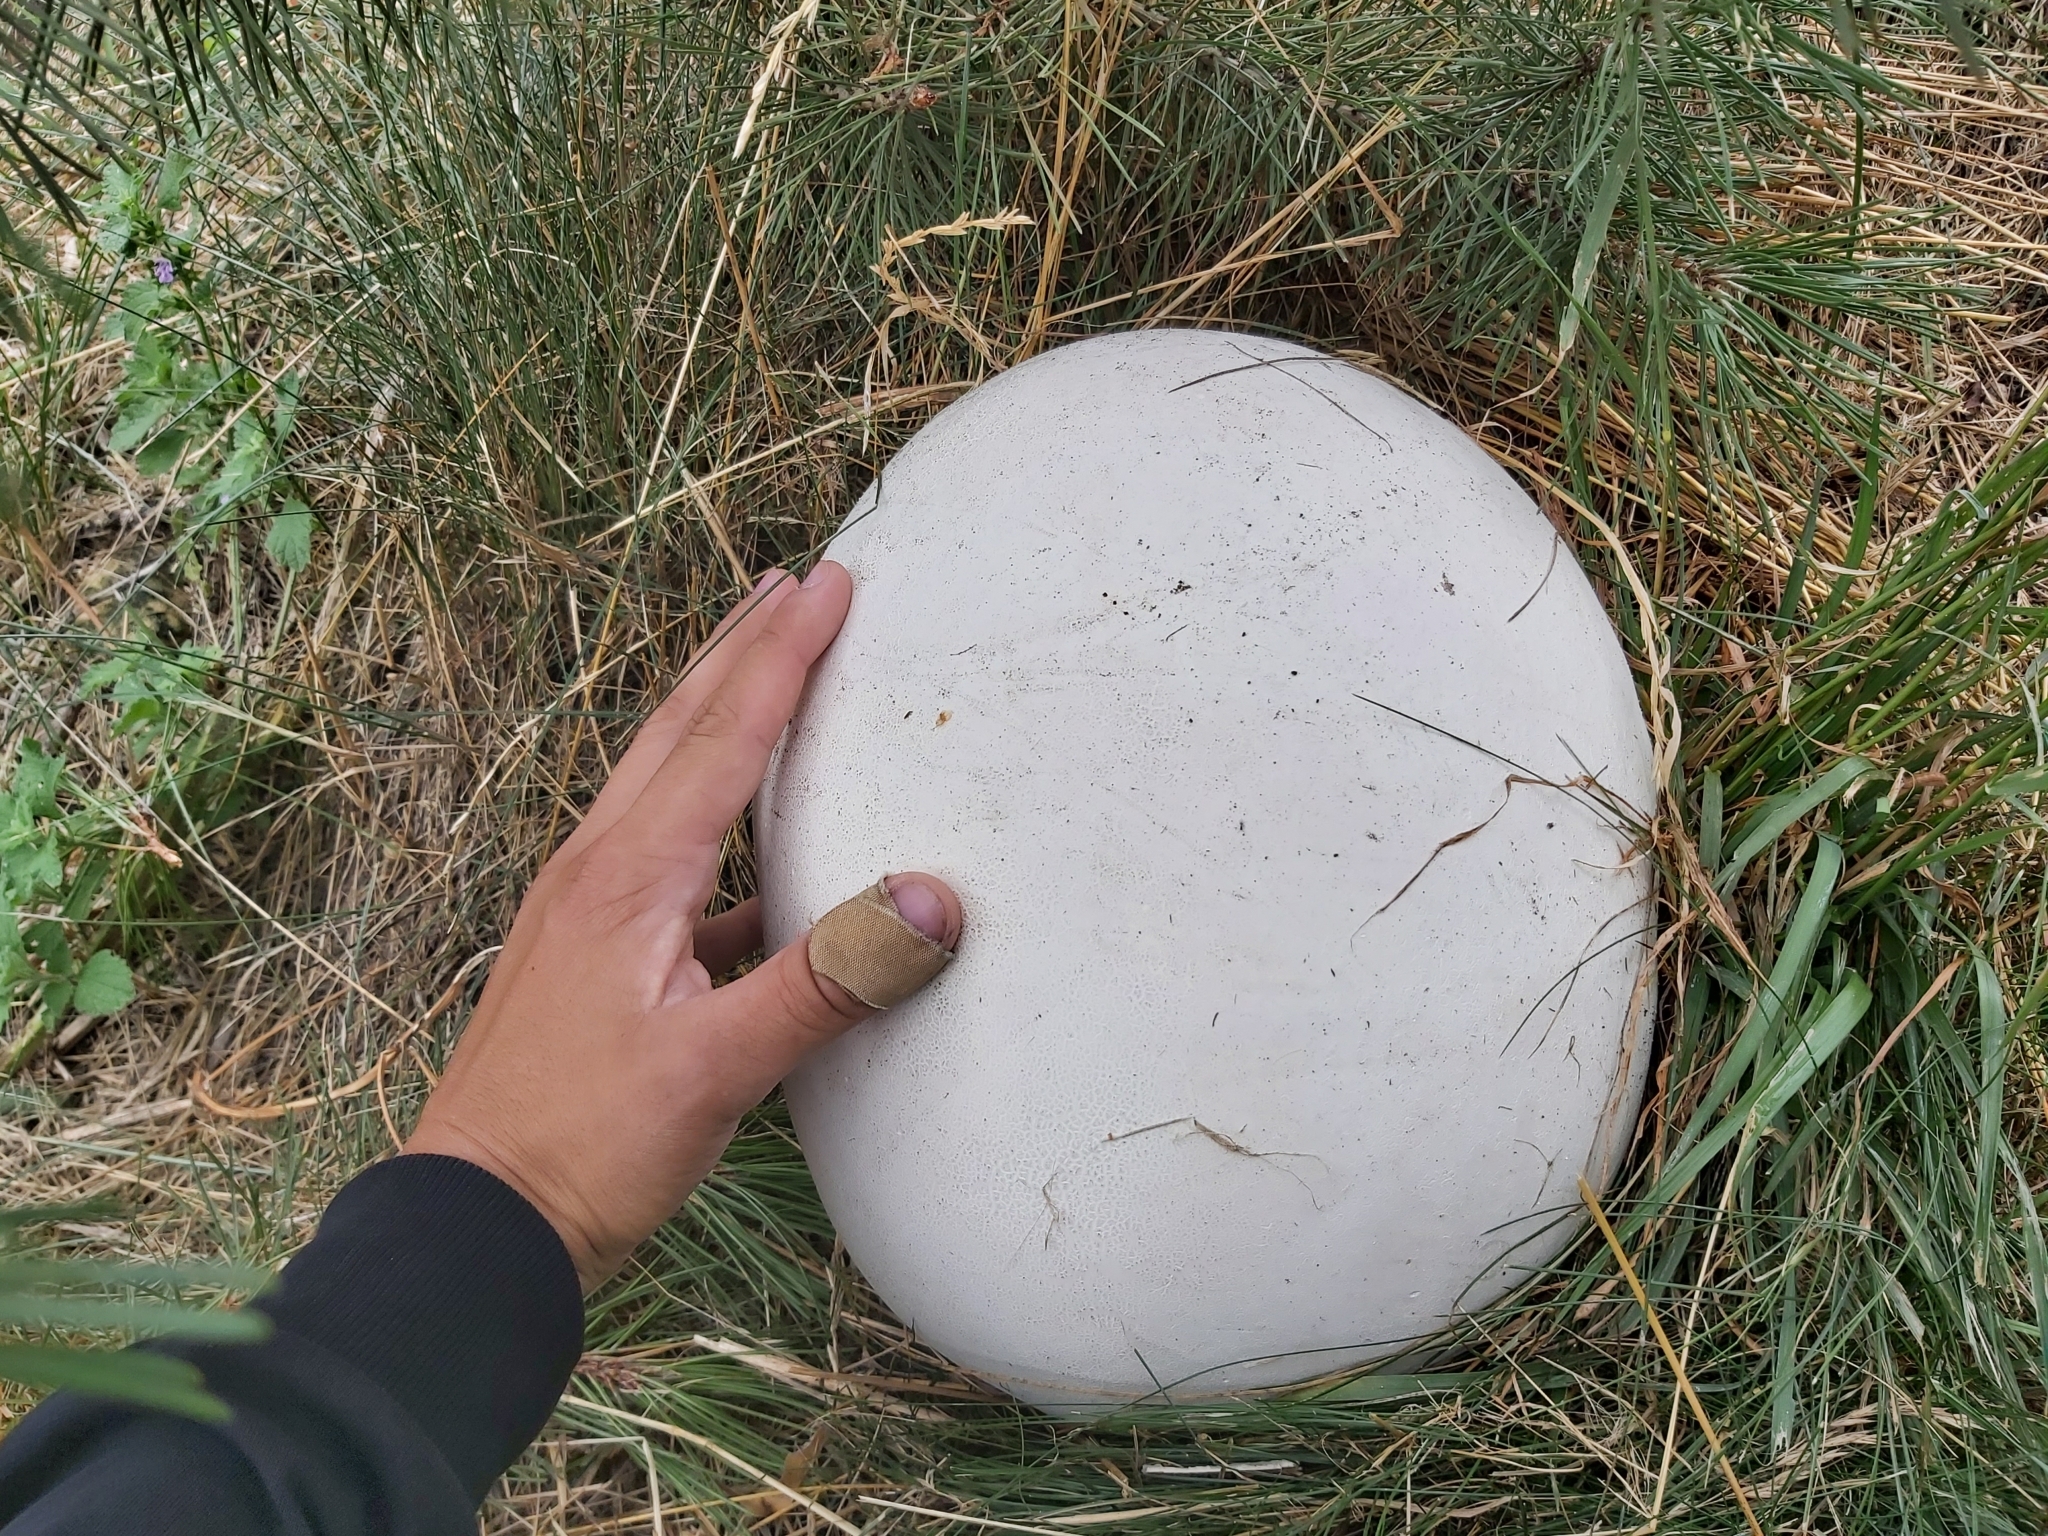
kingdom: Fungi
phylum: Basidiomycota
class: Agaricomycetes
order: Agaricales
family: Lycoperdaceae
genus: Calvatia
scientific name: Calvatia gigantea
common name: Giant puffball
